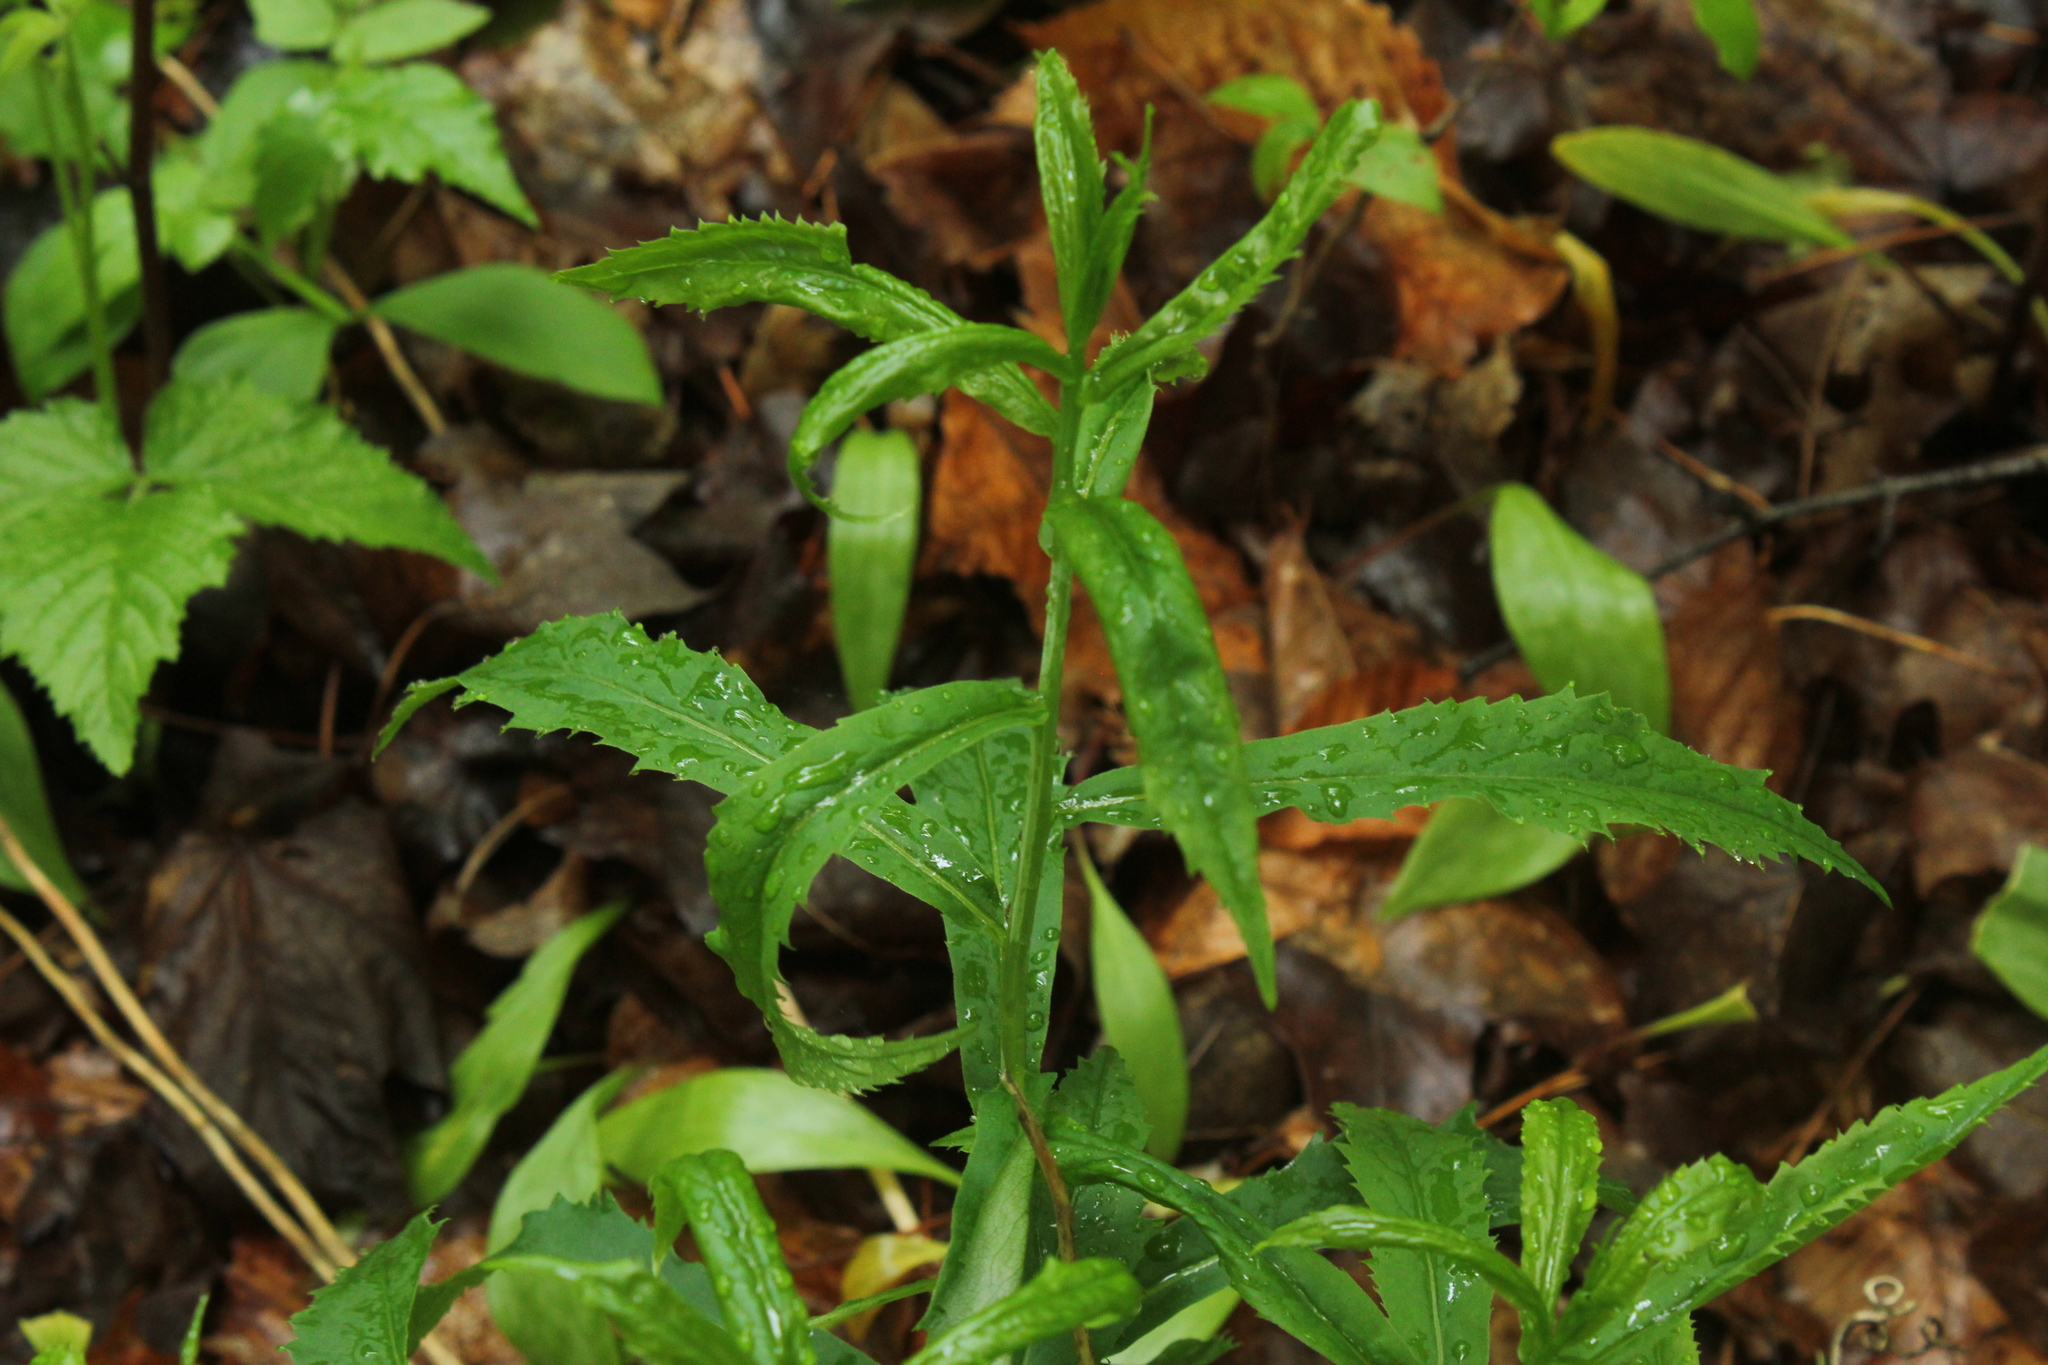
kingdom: Plantae
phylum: Tracheophyta
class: Magnoliopsida
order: Asterales
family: Asteraceae
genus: Solidago
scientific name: Solidago caesia
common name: Woodland goldenrod
